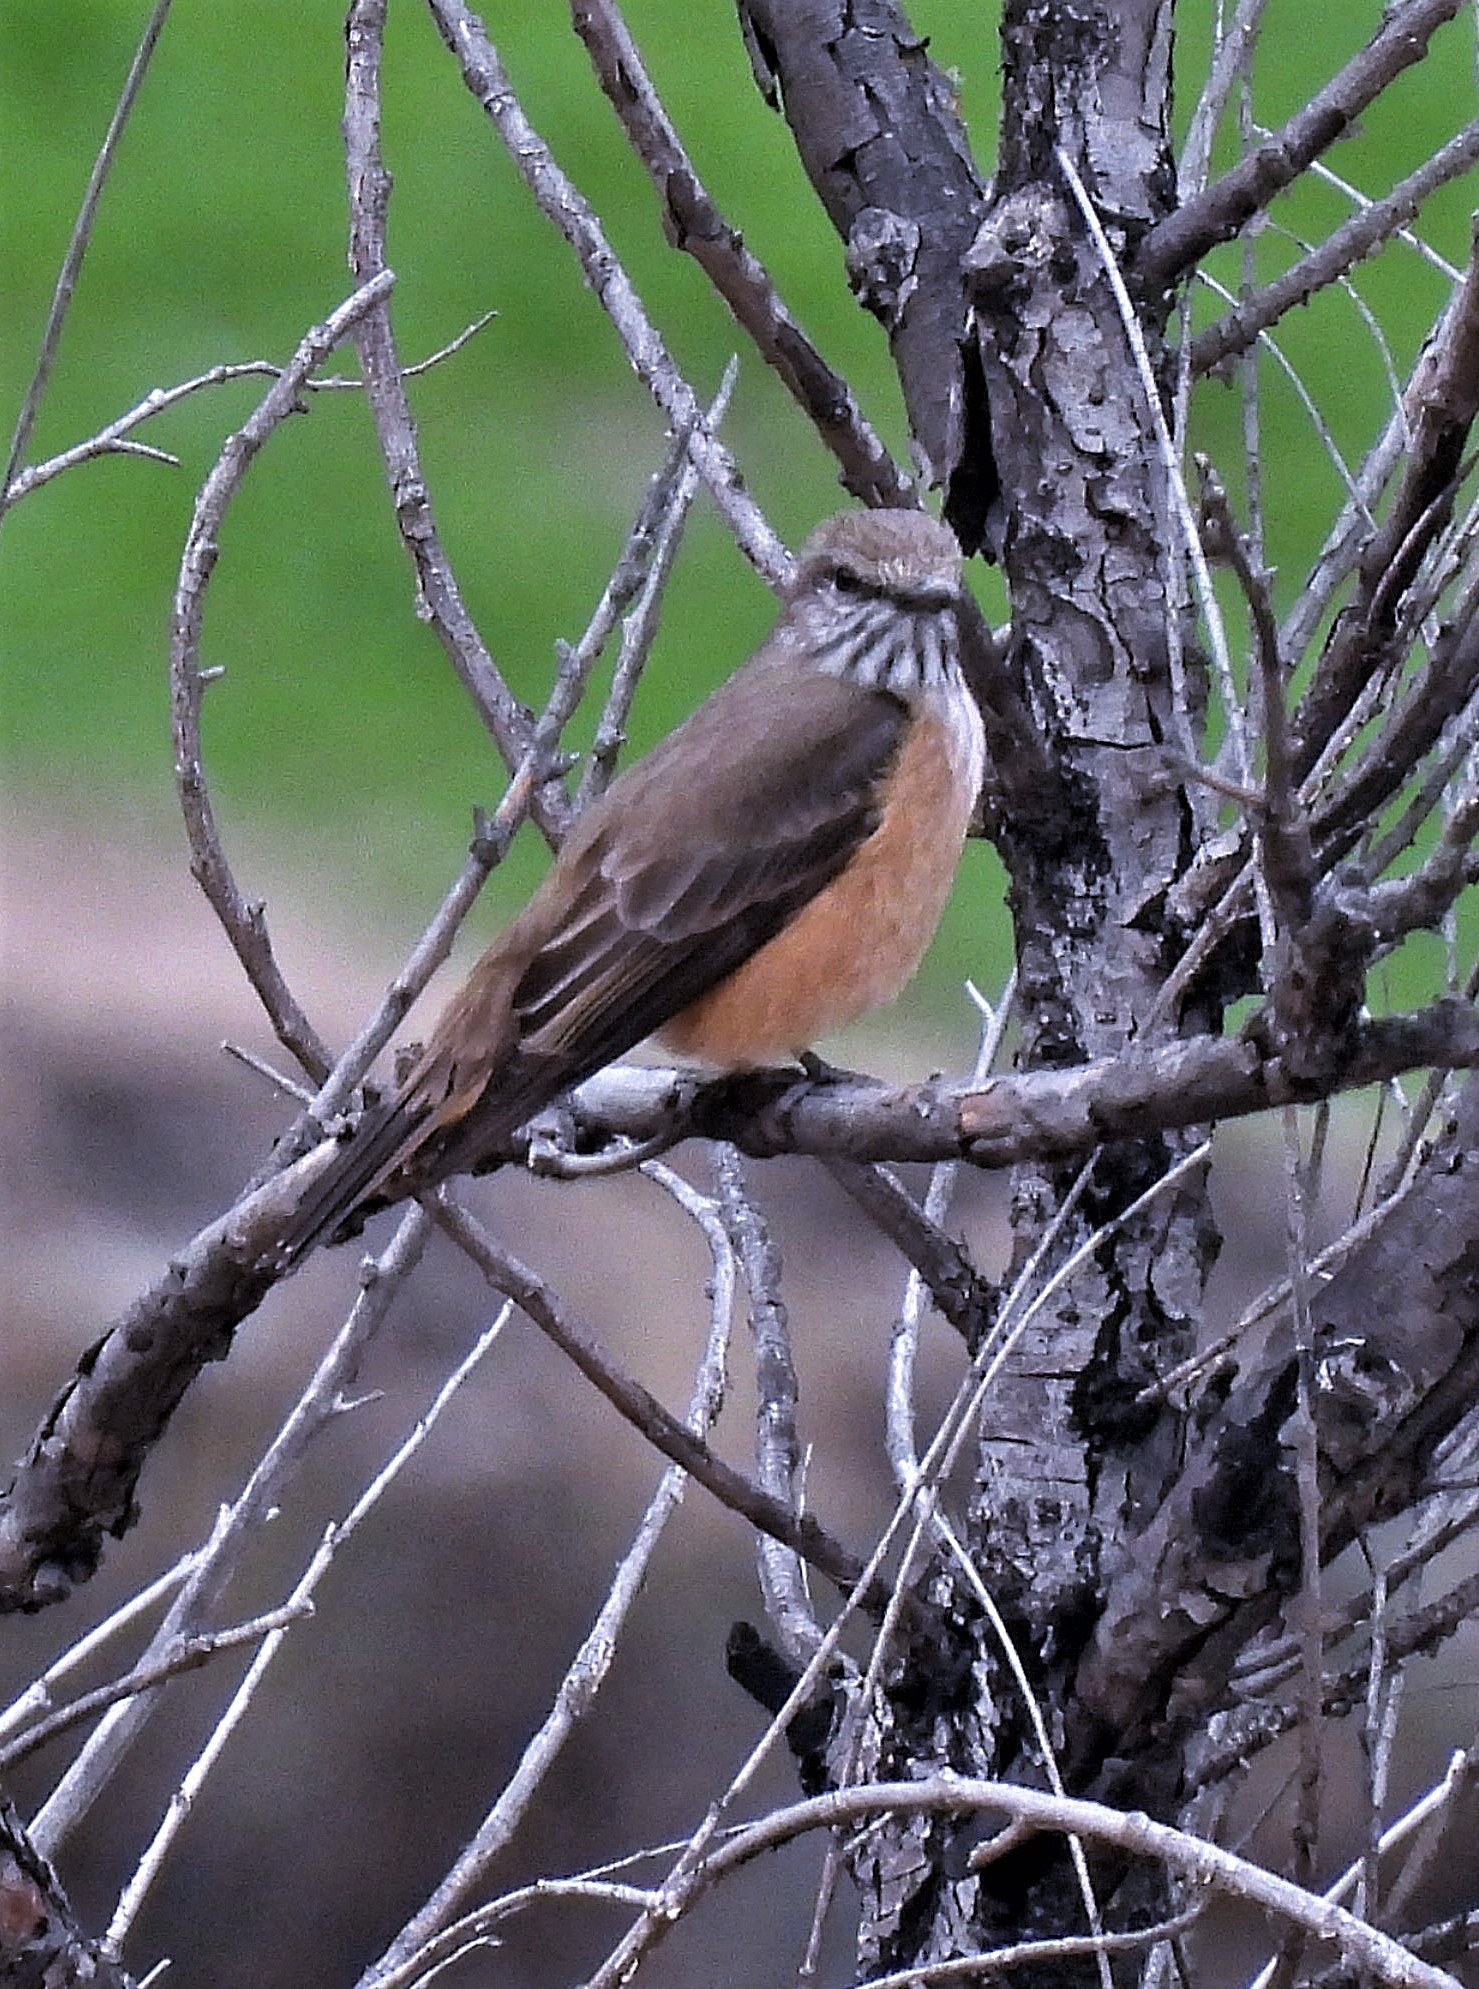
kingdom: Animalia
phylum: Chordata
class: Aves
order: Passeriformes
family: Tyrannidae
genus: Myiotheretes
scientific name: Myiotheretes striaticollis
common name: Streak-throated bush tyrant
